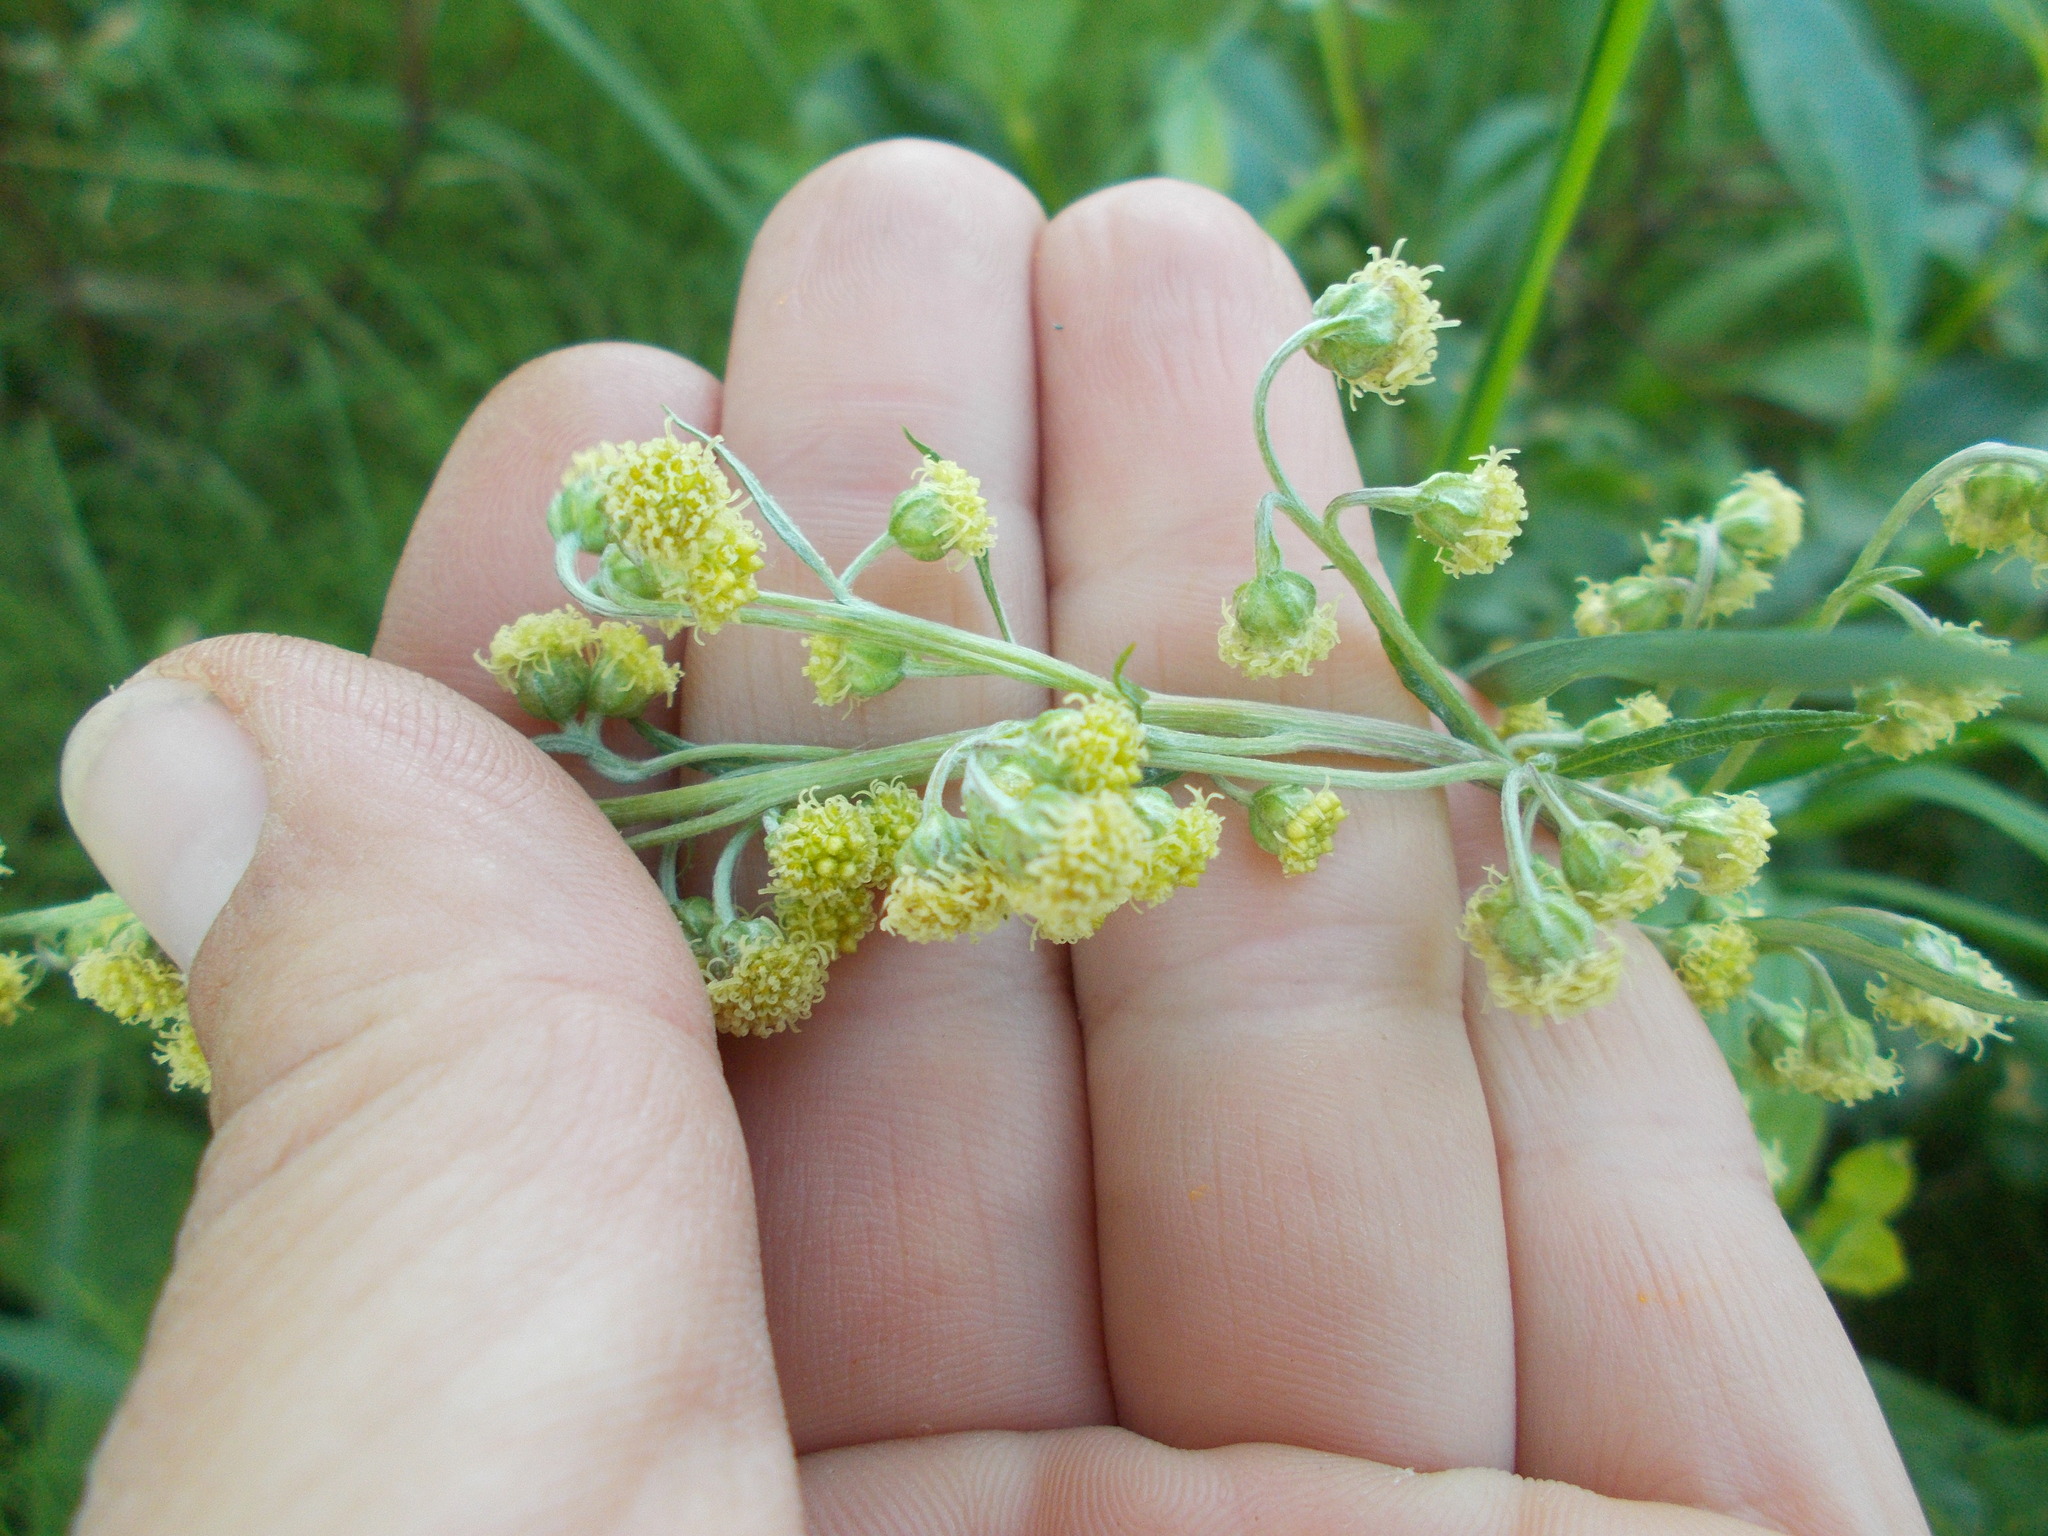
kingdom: Plantae
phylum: Tracheophyta
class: Magnoliopsida
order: Asterales
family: Asteraceae
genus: Artemisia
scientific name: Artemisia tilesii
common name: Aleutian mugwort
